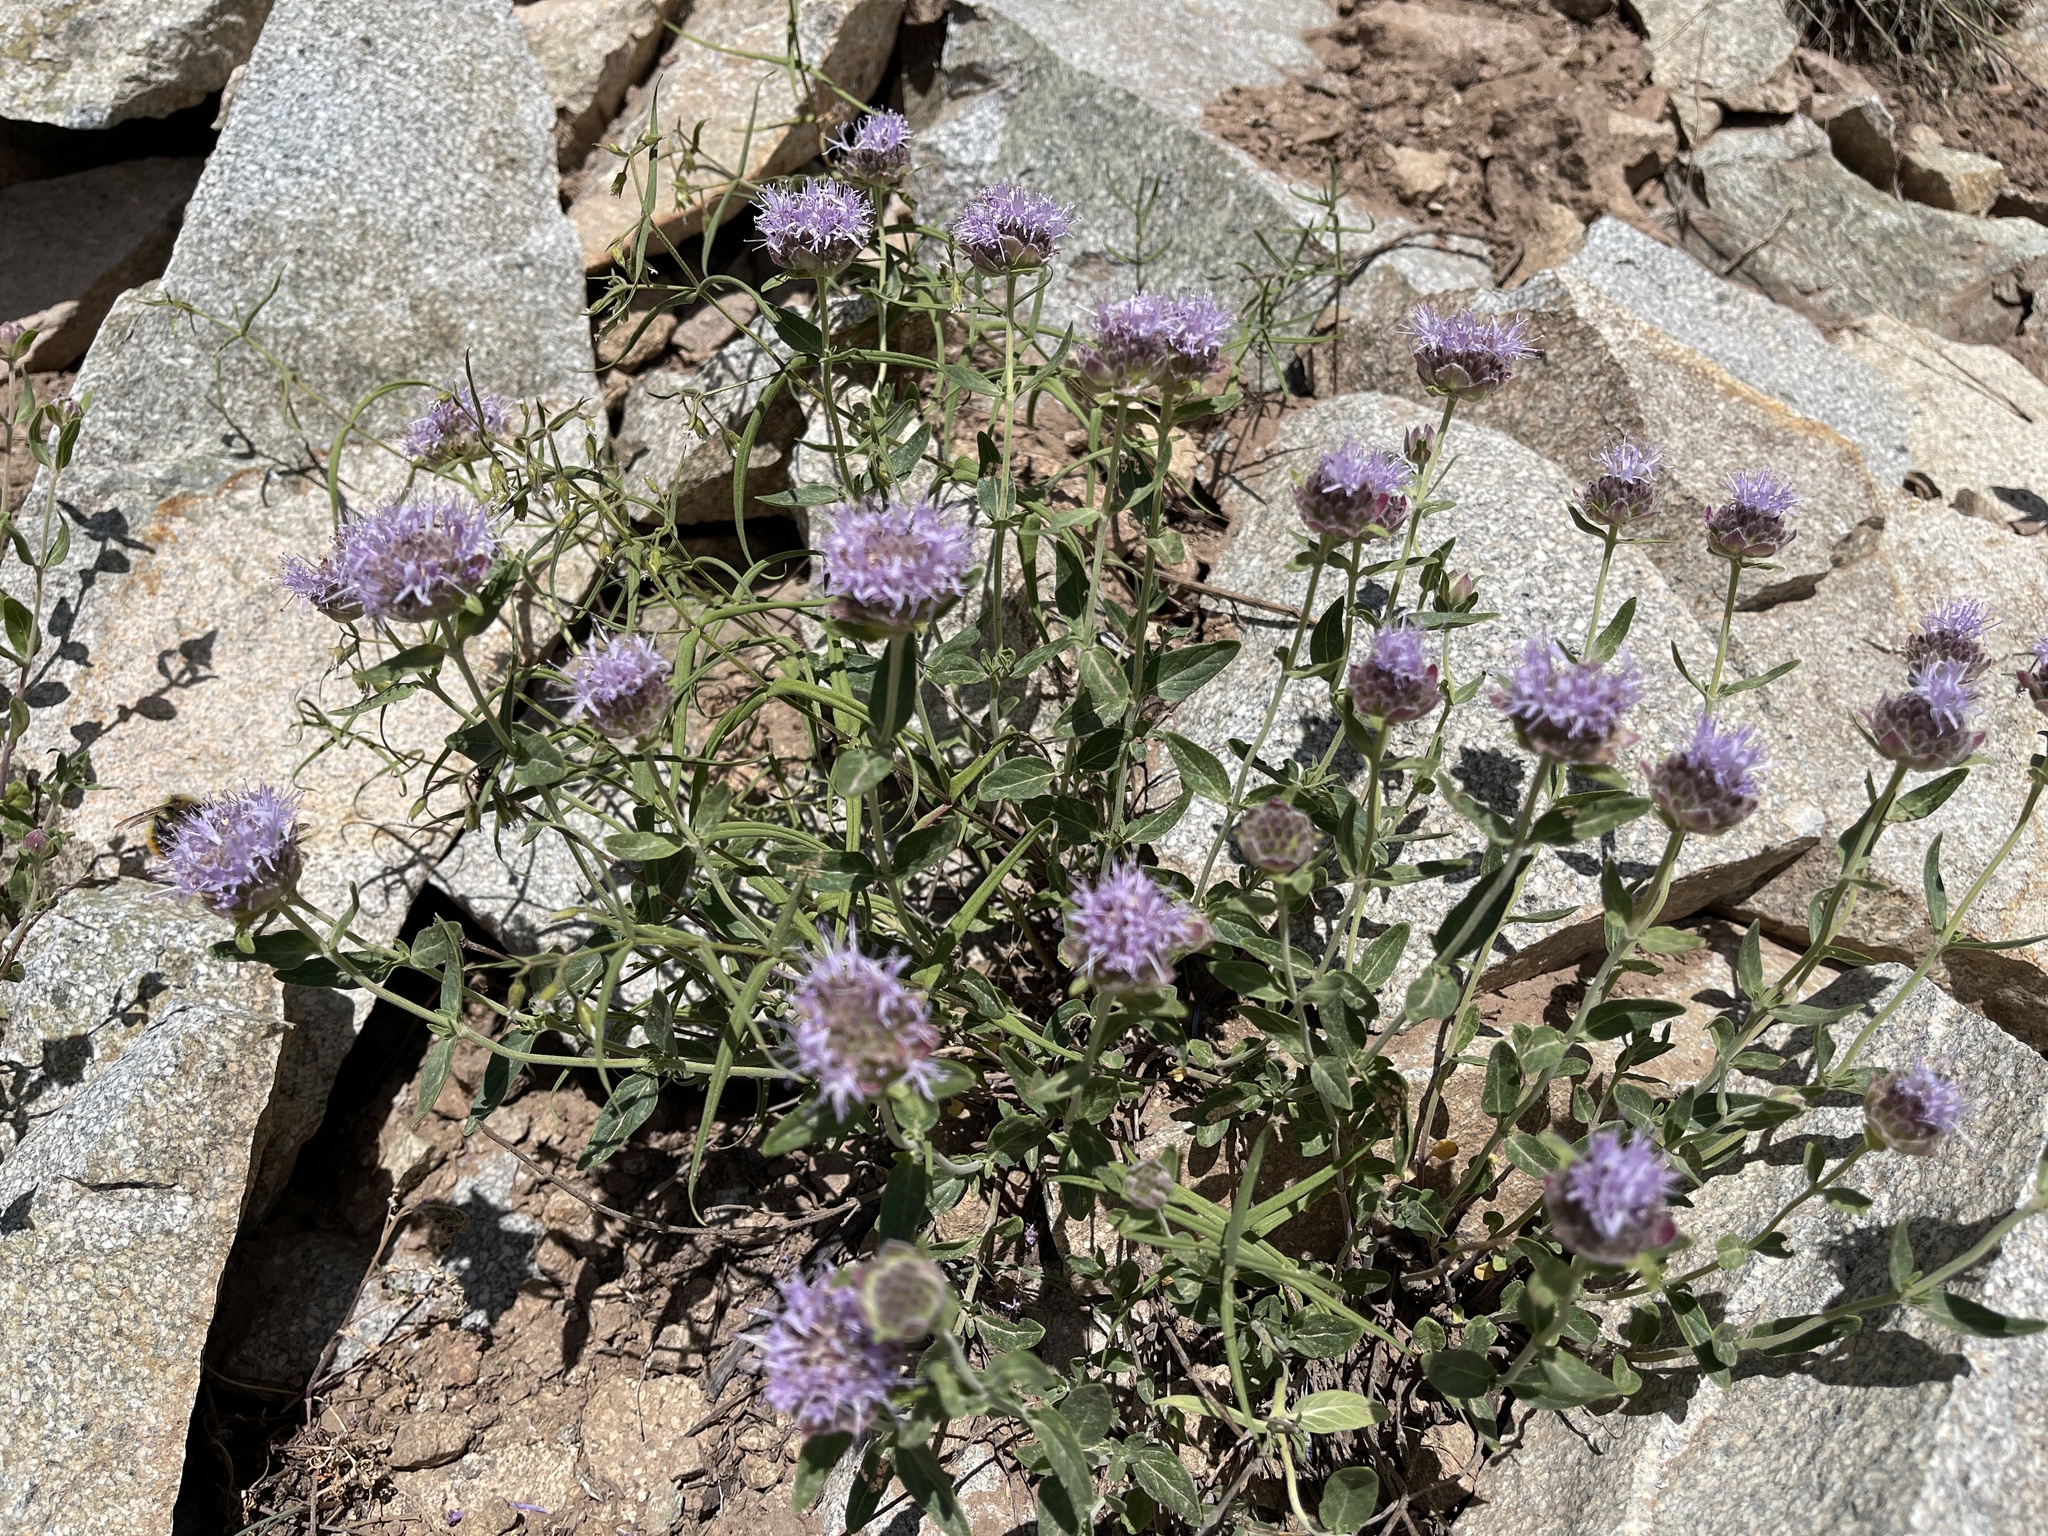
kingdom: Plantae
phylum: Tracheophyta
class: Magnoliopsida
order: Lamiales
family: Lamiaceae
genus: Monardella
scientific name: Monardella odoratissima
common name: Pacific monardella
